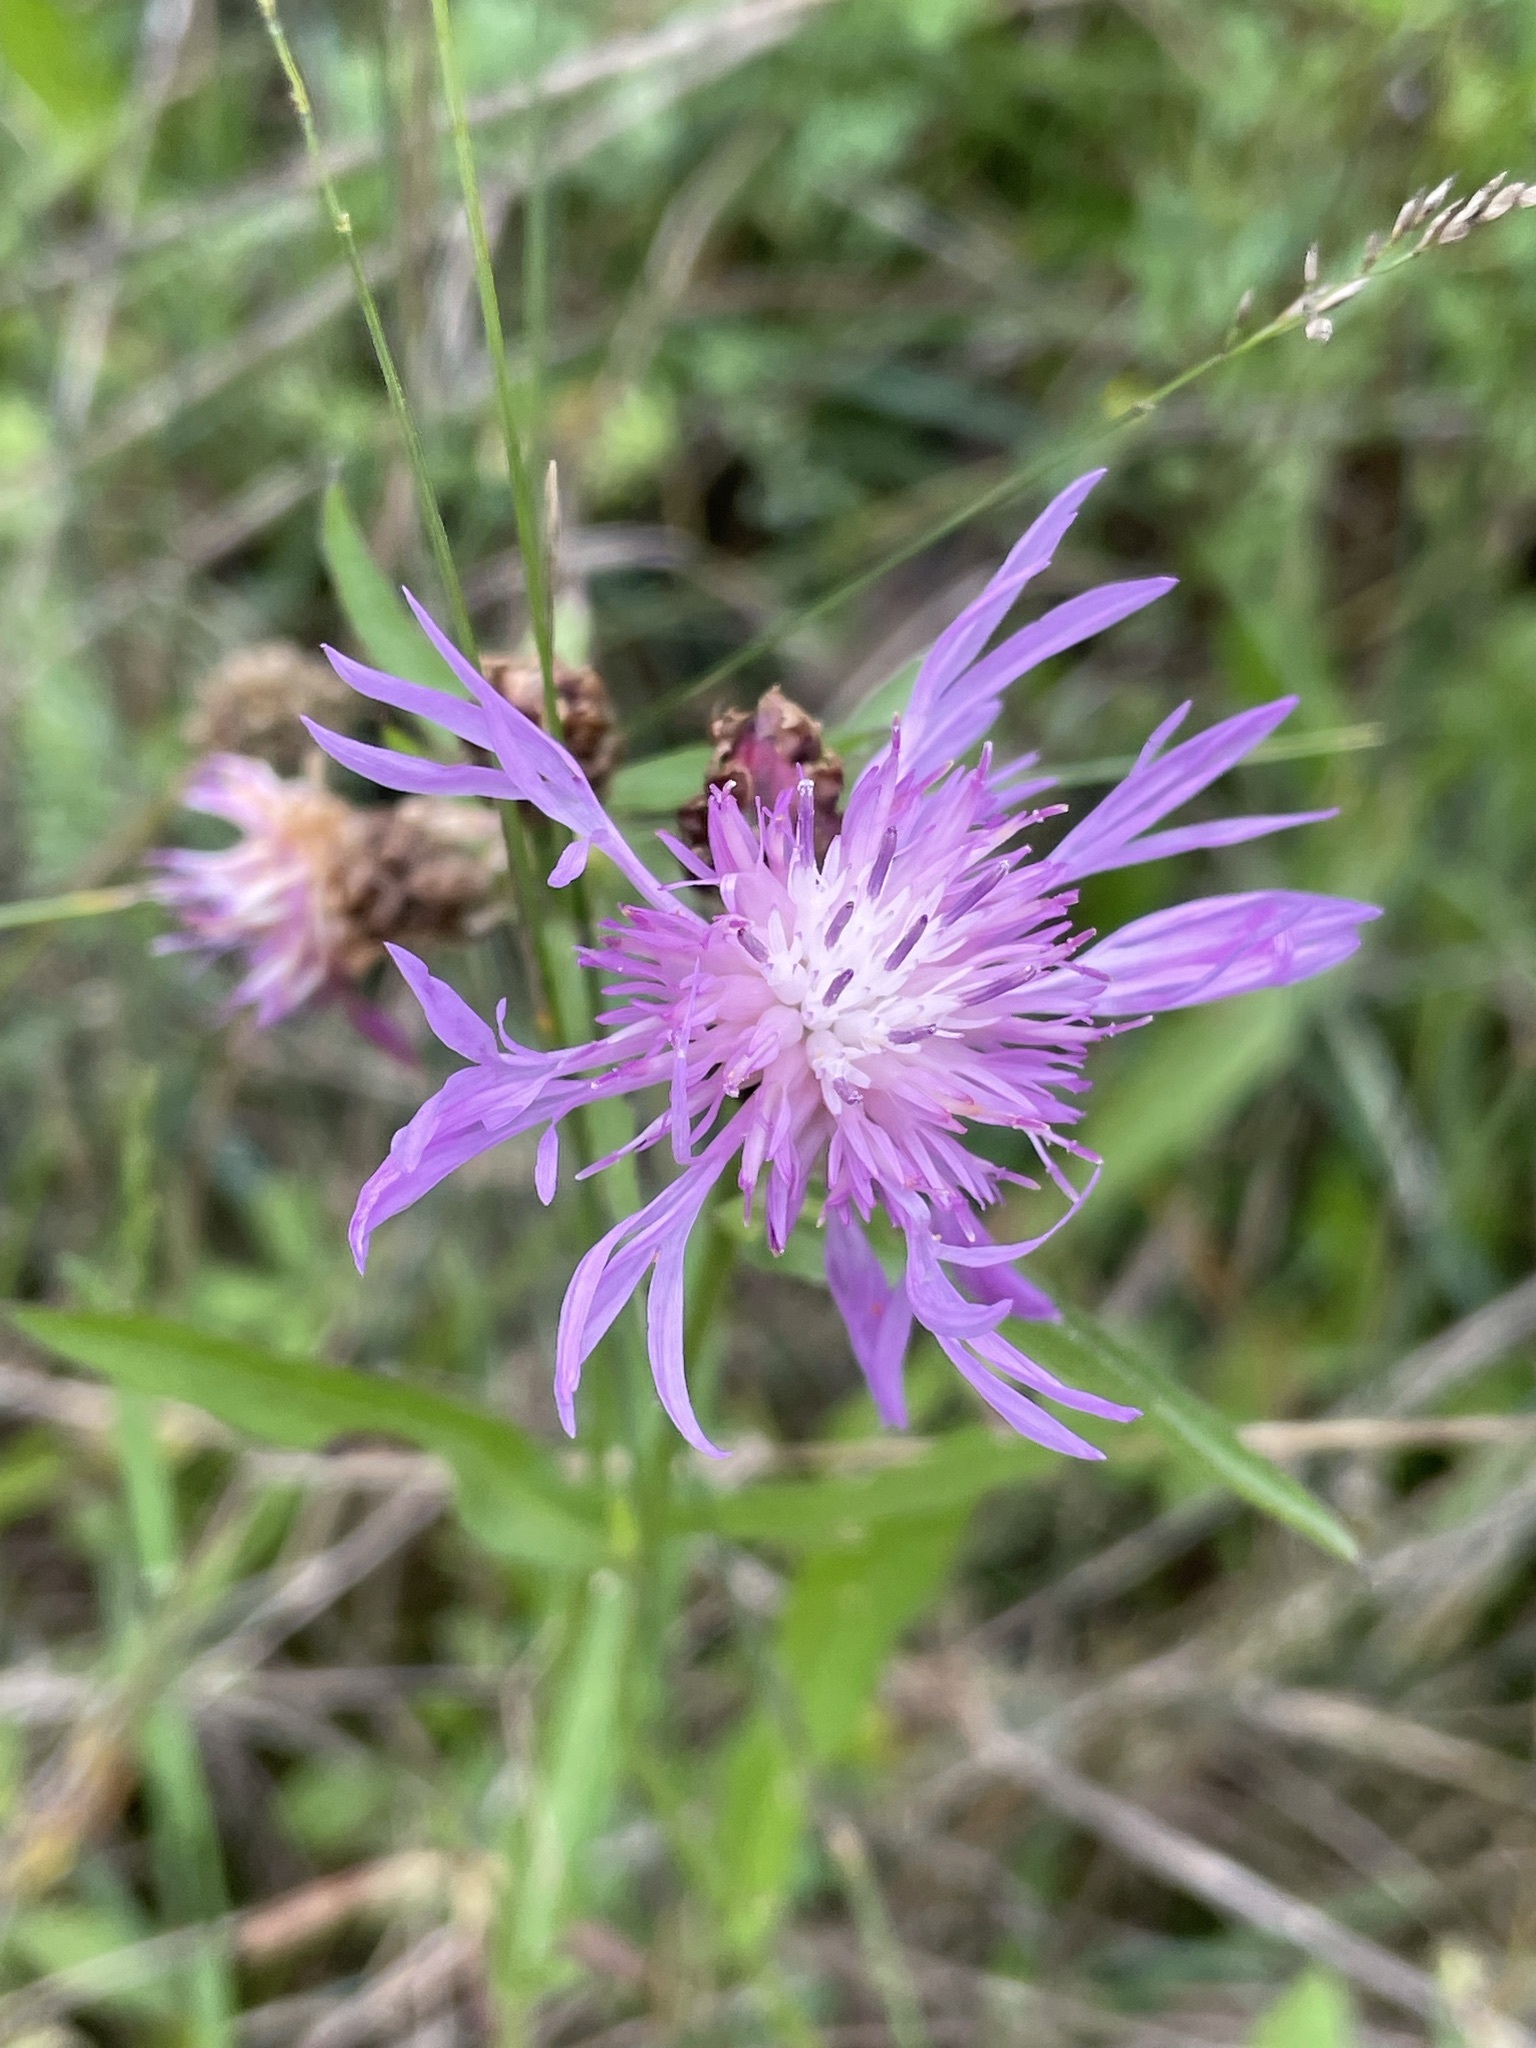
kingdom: Plantae
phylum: Tracheophyta
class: Magnoliopsida
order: Asterales
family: Asteraceae
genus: Centaurea
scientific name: Centaurea jacea
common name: Brown knapweed
